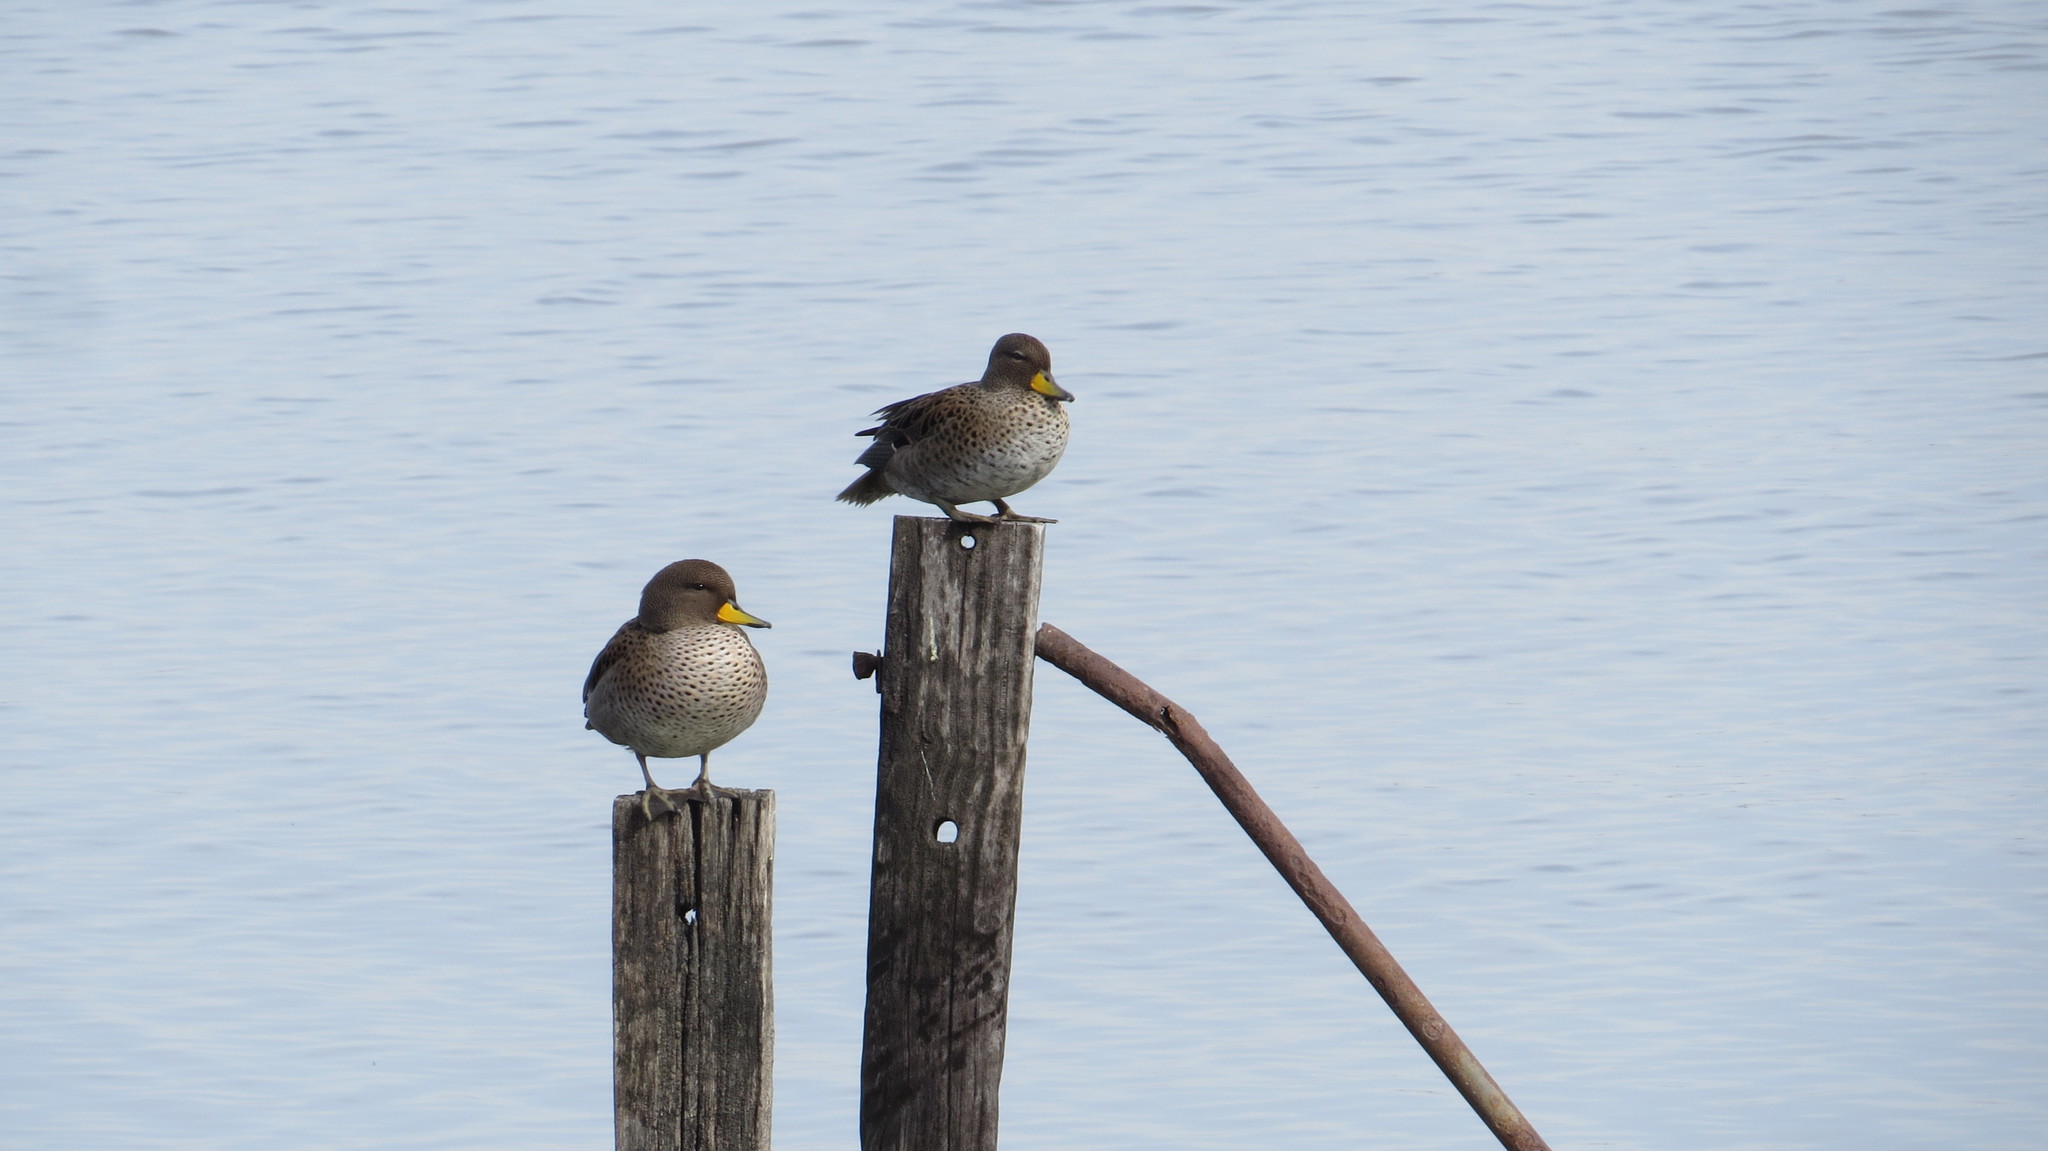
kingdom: Animalia
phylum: Chordata
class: Aves
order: Anseriformes
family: Anatidae
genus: Anas
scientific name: Anas flavirostris
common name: Yellow-billed teal
